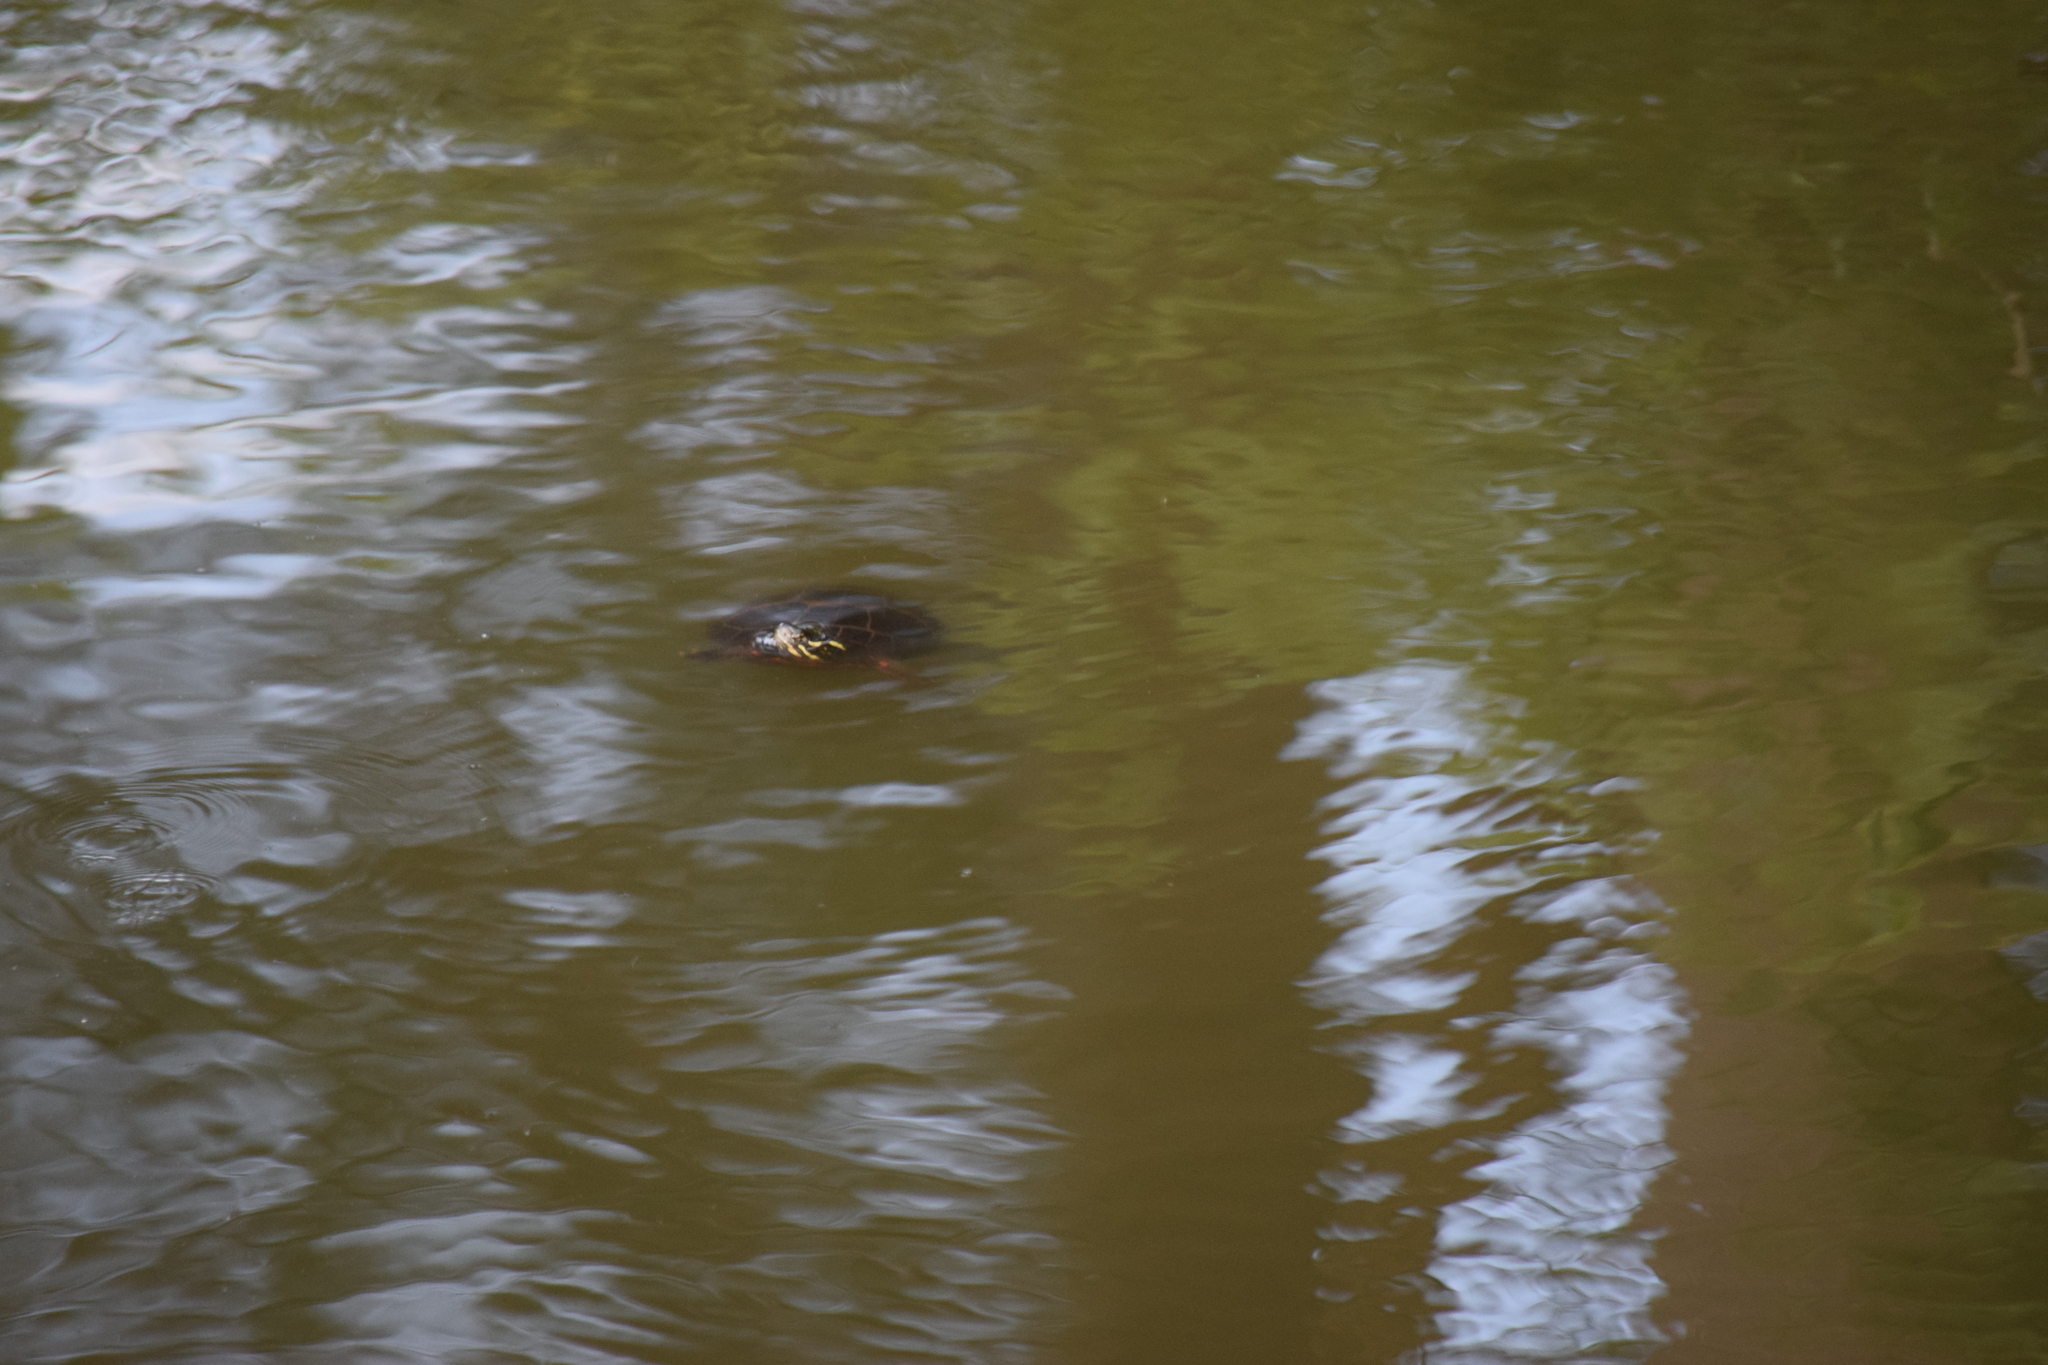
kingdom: Animalia
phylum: Chordata
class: Testudines
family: Emydidae
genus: Chrysemys
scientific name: Chrysemys picta
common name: Painted turtle
